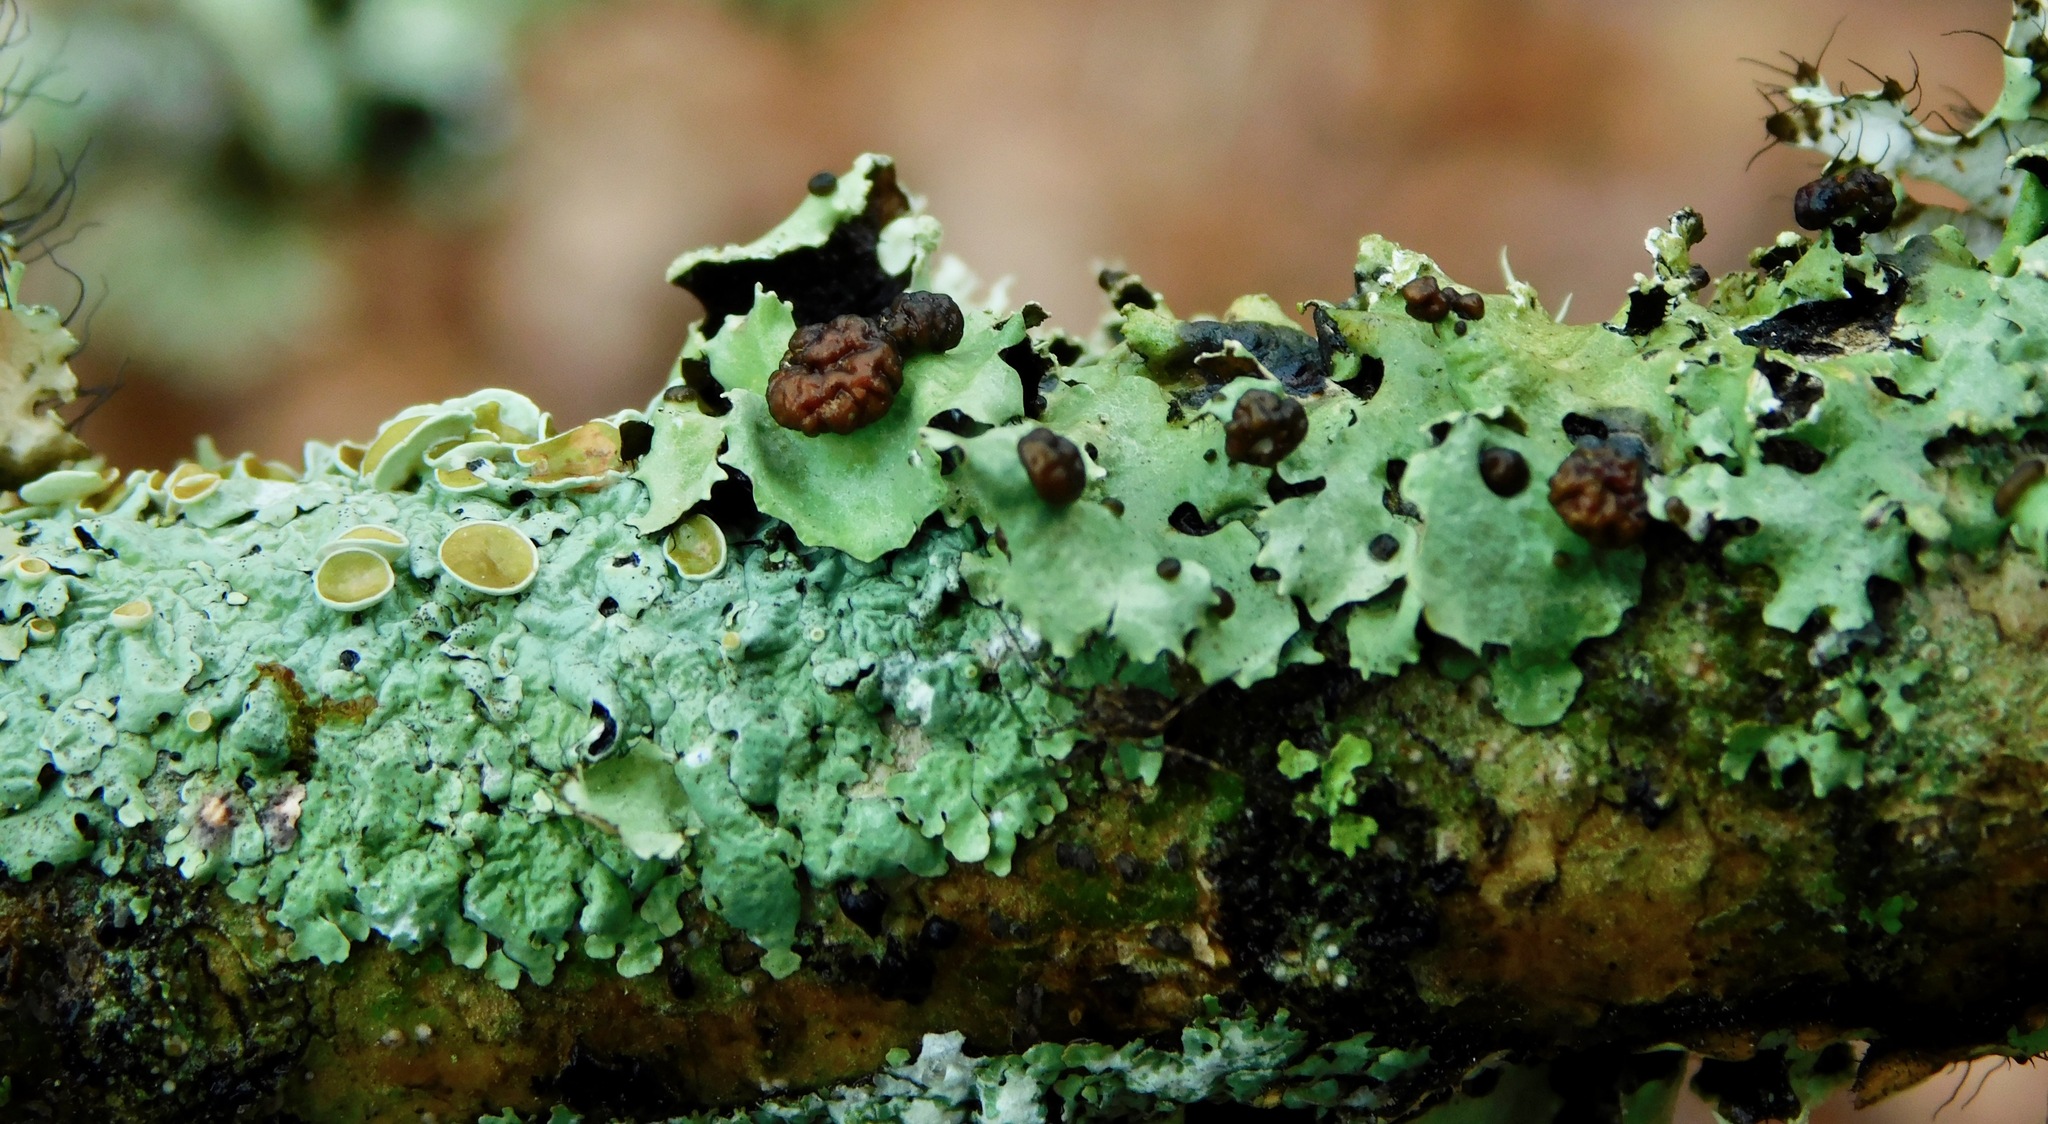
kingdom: Fungi
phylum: Basidiomycota
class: Tremellomycetes
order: Tremellales
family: Tremellaceae
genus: Tremella
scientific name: Tremella parmeliarum
